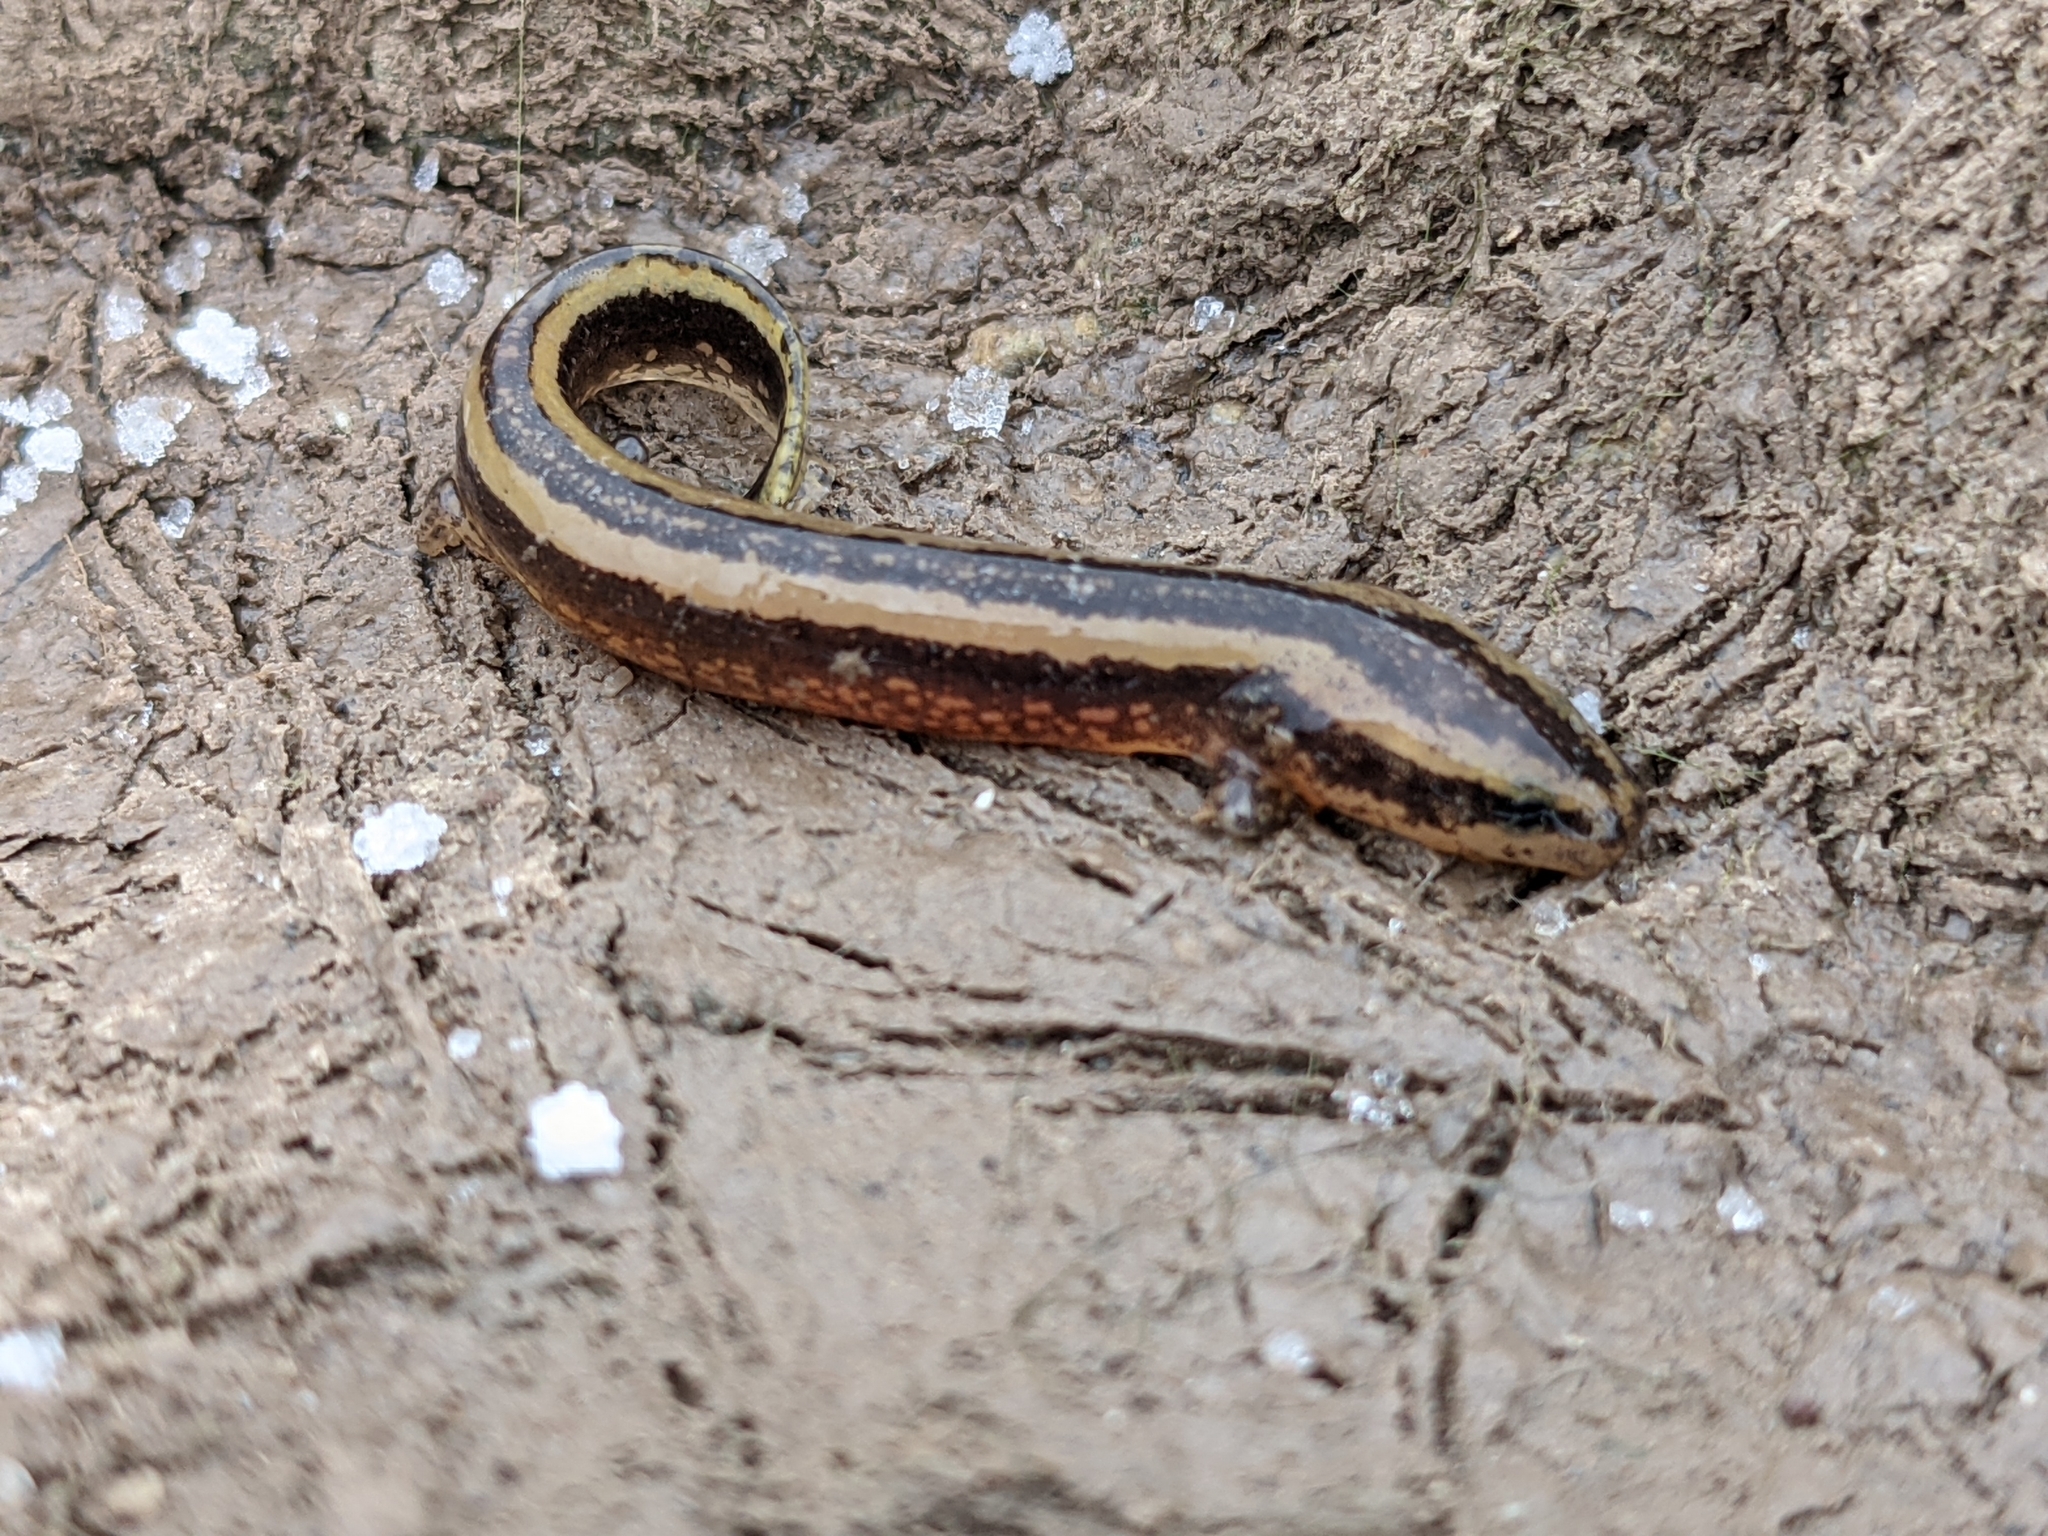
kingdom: Animalia
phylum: Chordata
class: Amphibia
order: Caudata
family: Proteidae
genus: Necturus
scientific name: Necturus maculosus
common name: Mudpuppy
